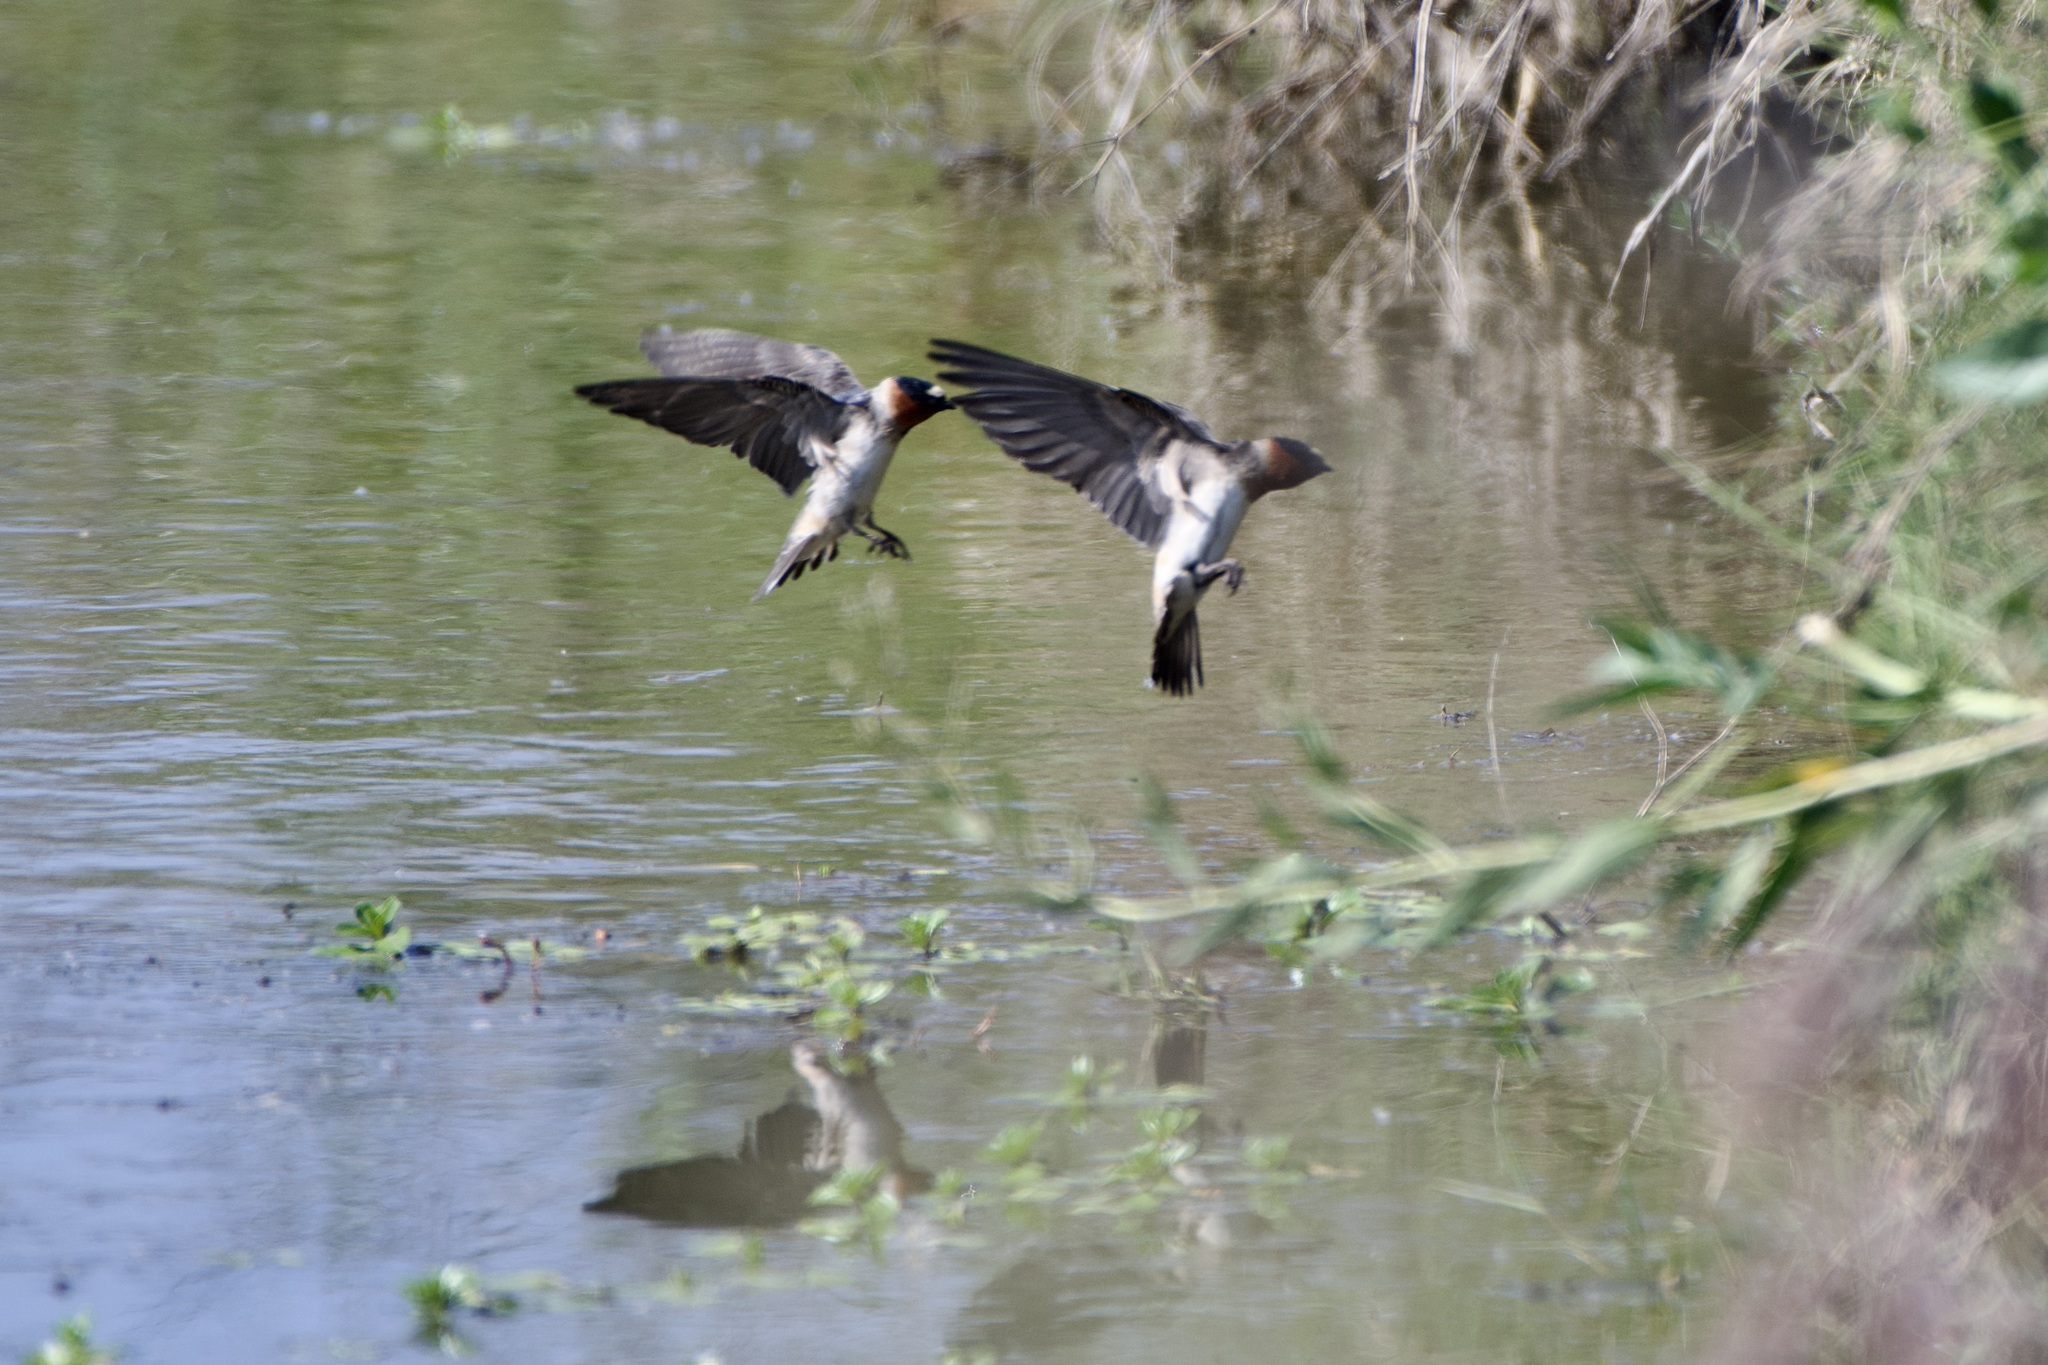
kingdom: Animalia
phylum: Chordata
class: Aves
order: Passeriformes
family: Hirundinidae
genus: Petrochelidon
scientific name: Petrochelidon pyrrhonota
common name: American cliff swallow
